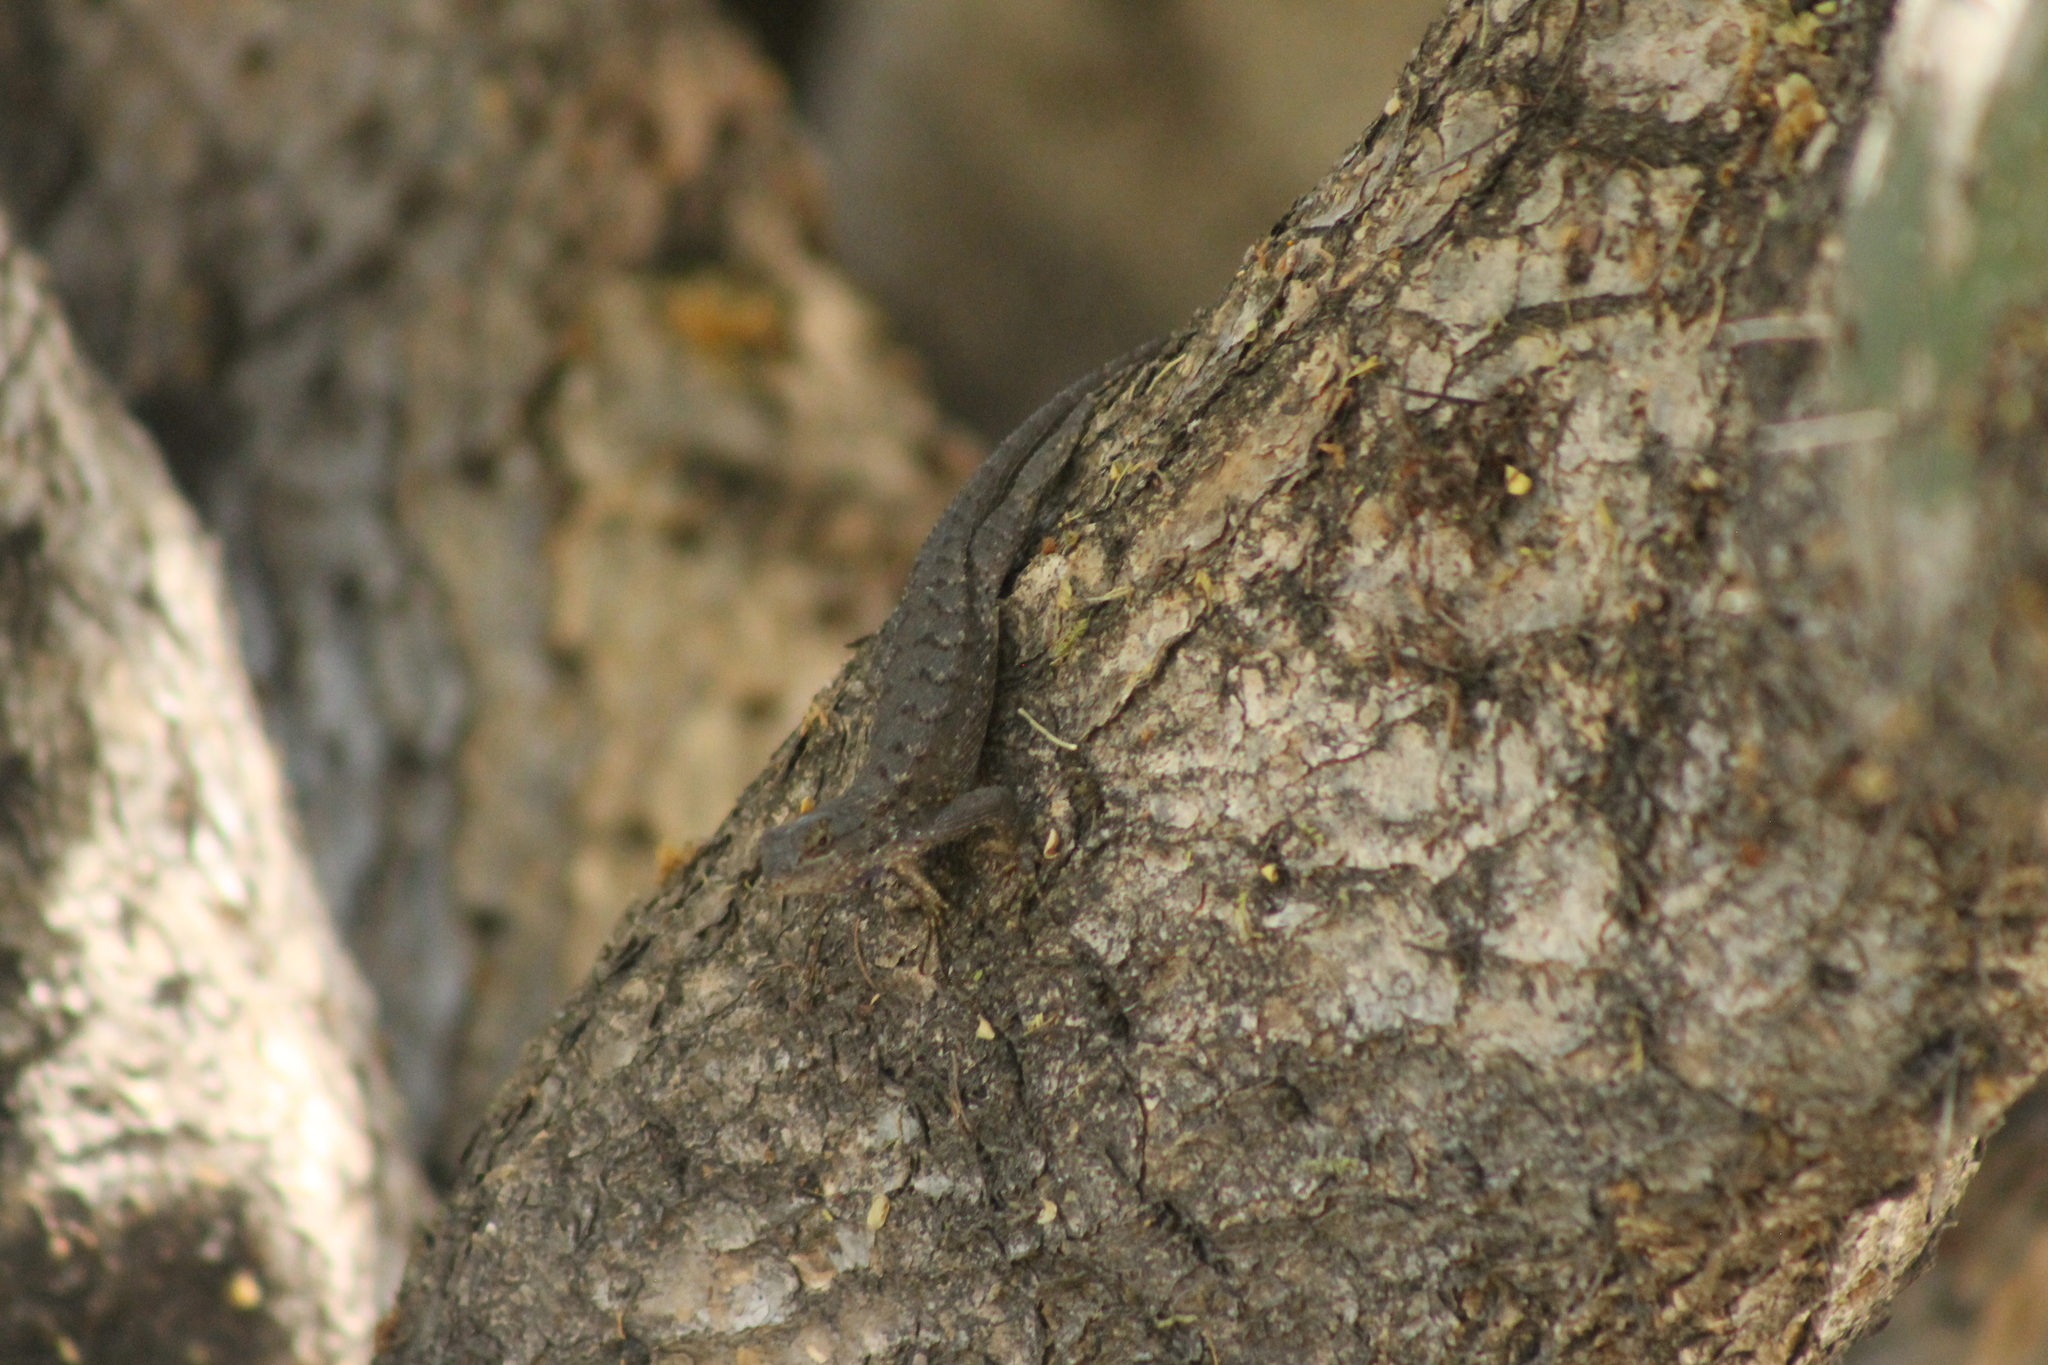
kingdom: Animalia
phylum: Chordata
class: Squamata
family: Phrynosomatidae
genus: Sceloporus
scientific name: Sceloporus occidentalis
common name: Western fence lizard
